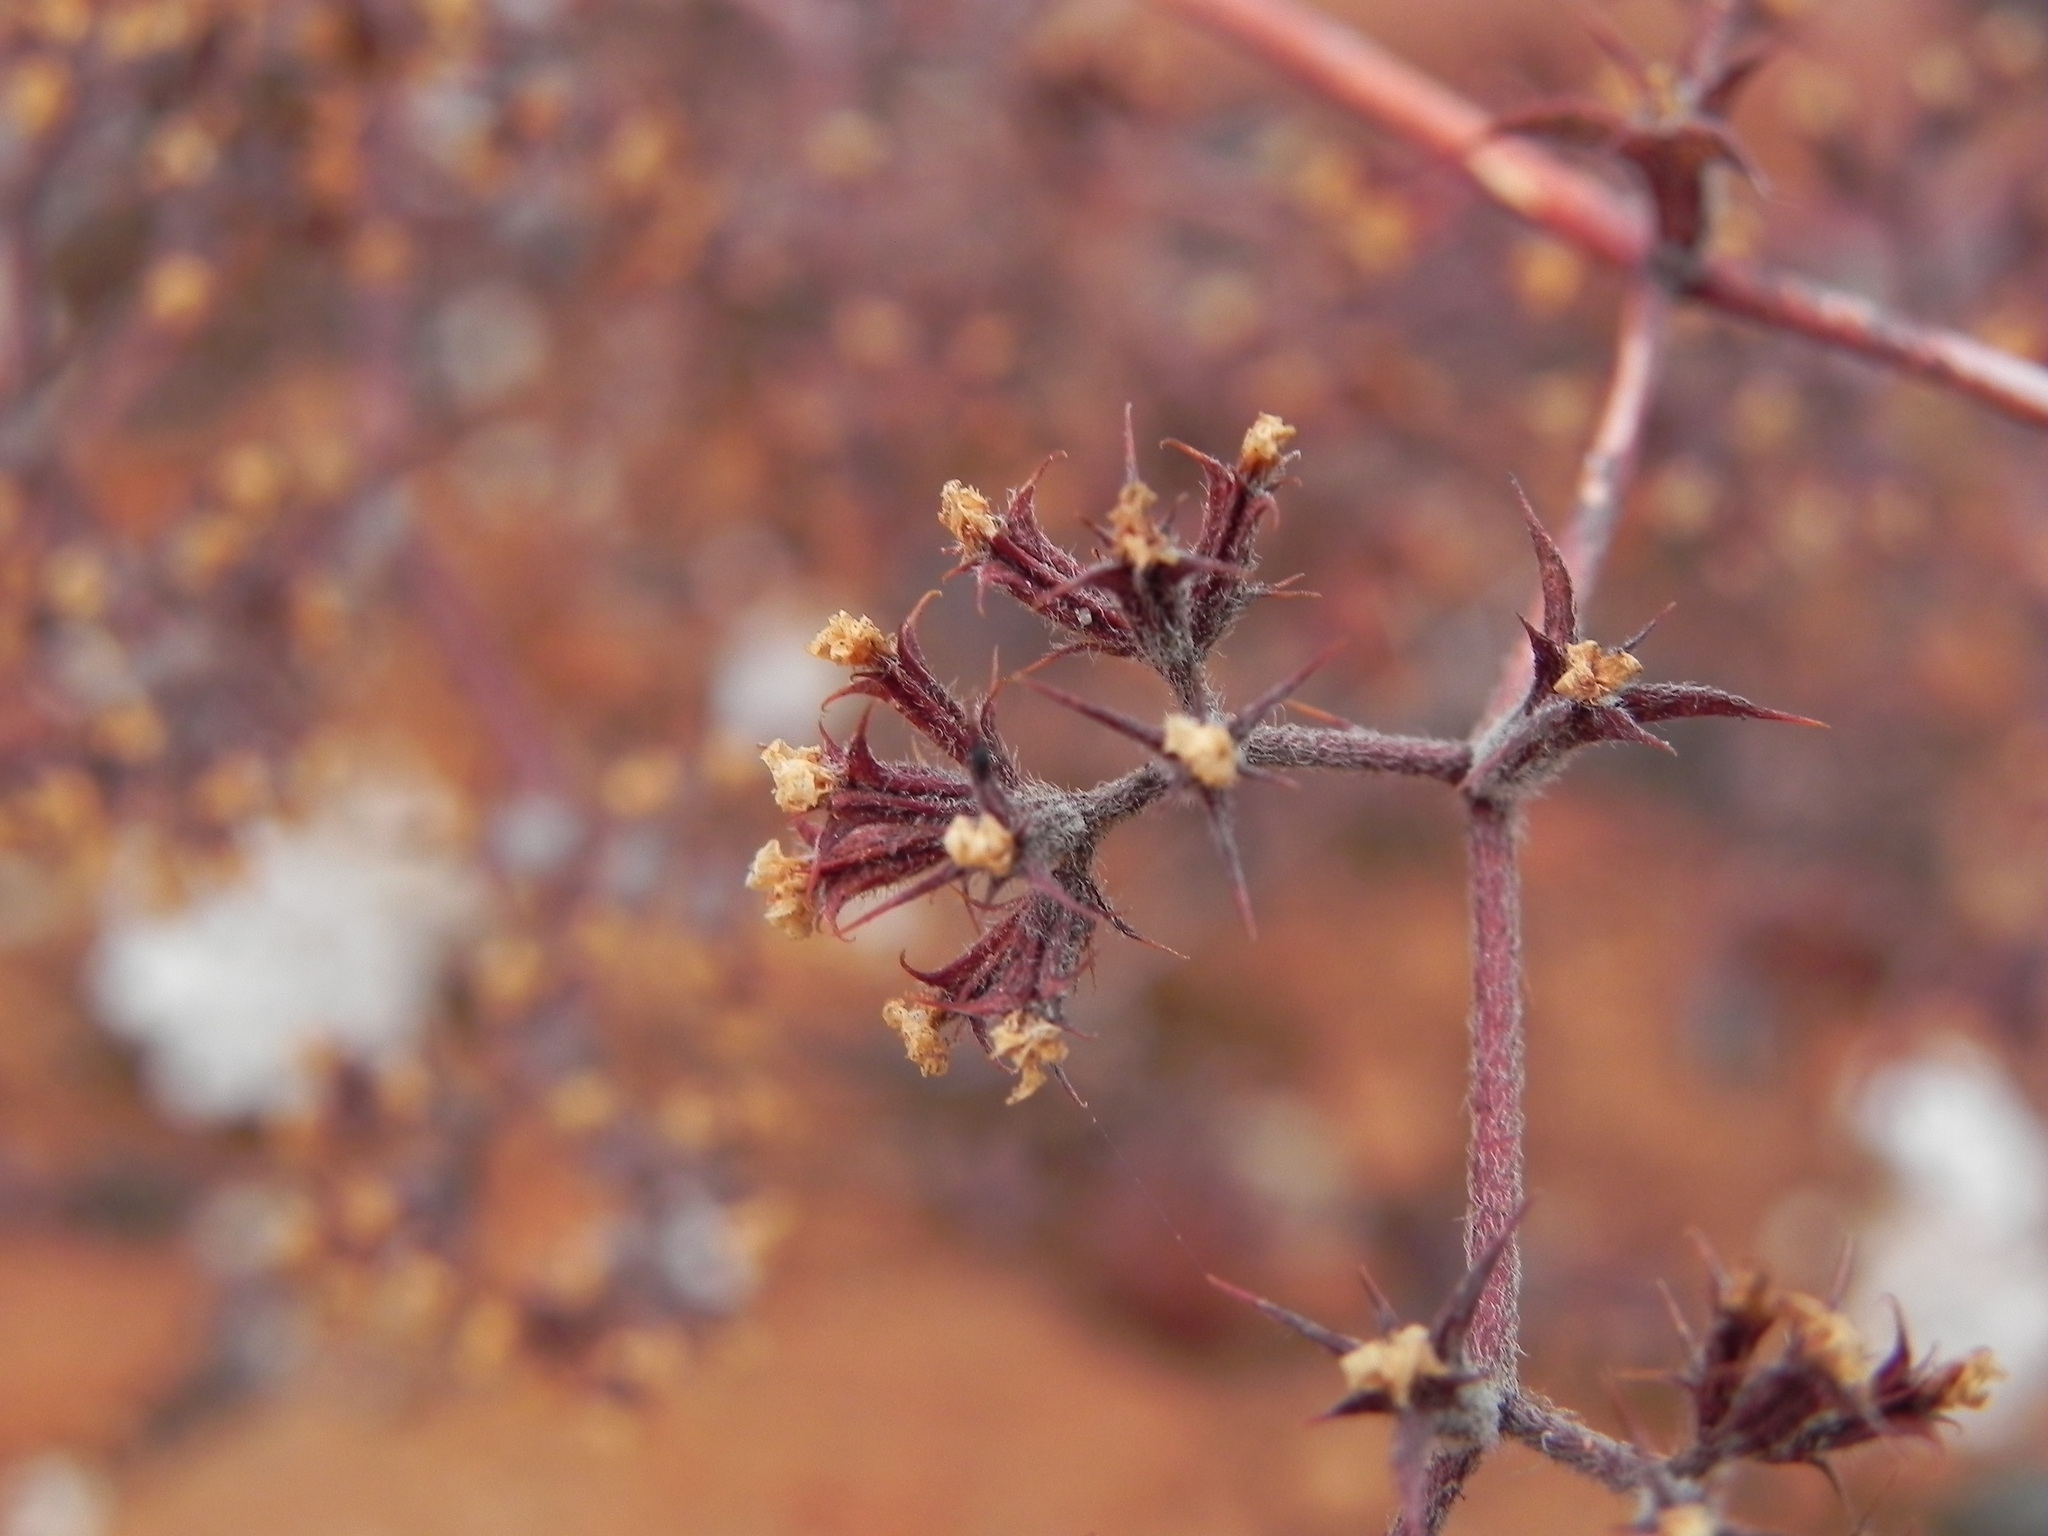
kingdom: Plantae
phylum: Tracheophyta
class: Magnoliopsida
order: Caryophyllales
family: Polygonaceae
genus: Chorizanthe
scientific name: Chorizanthe fimbriata
